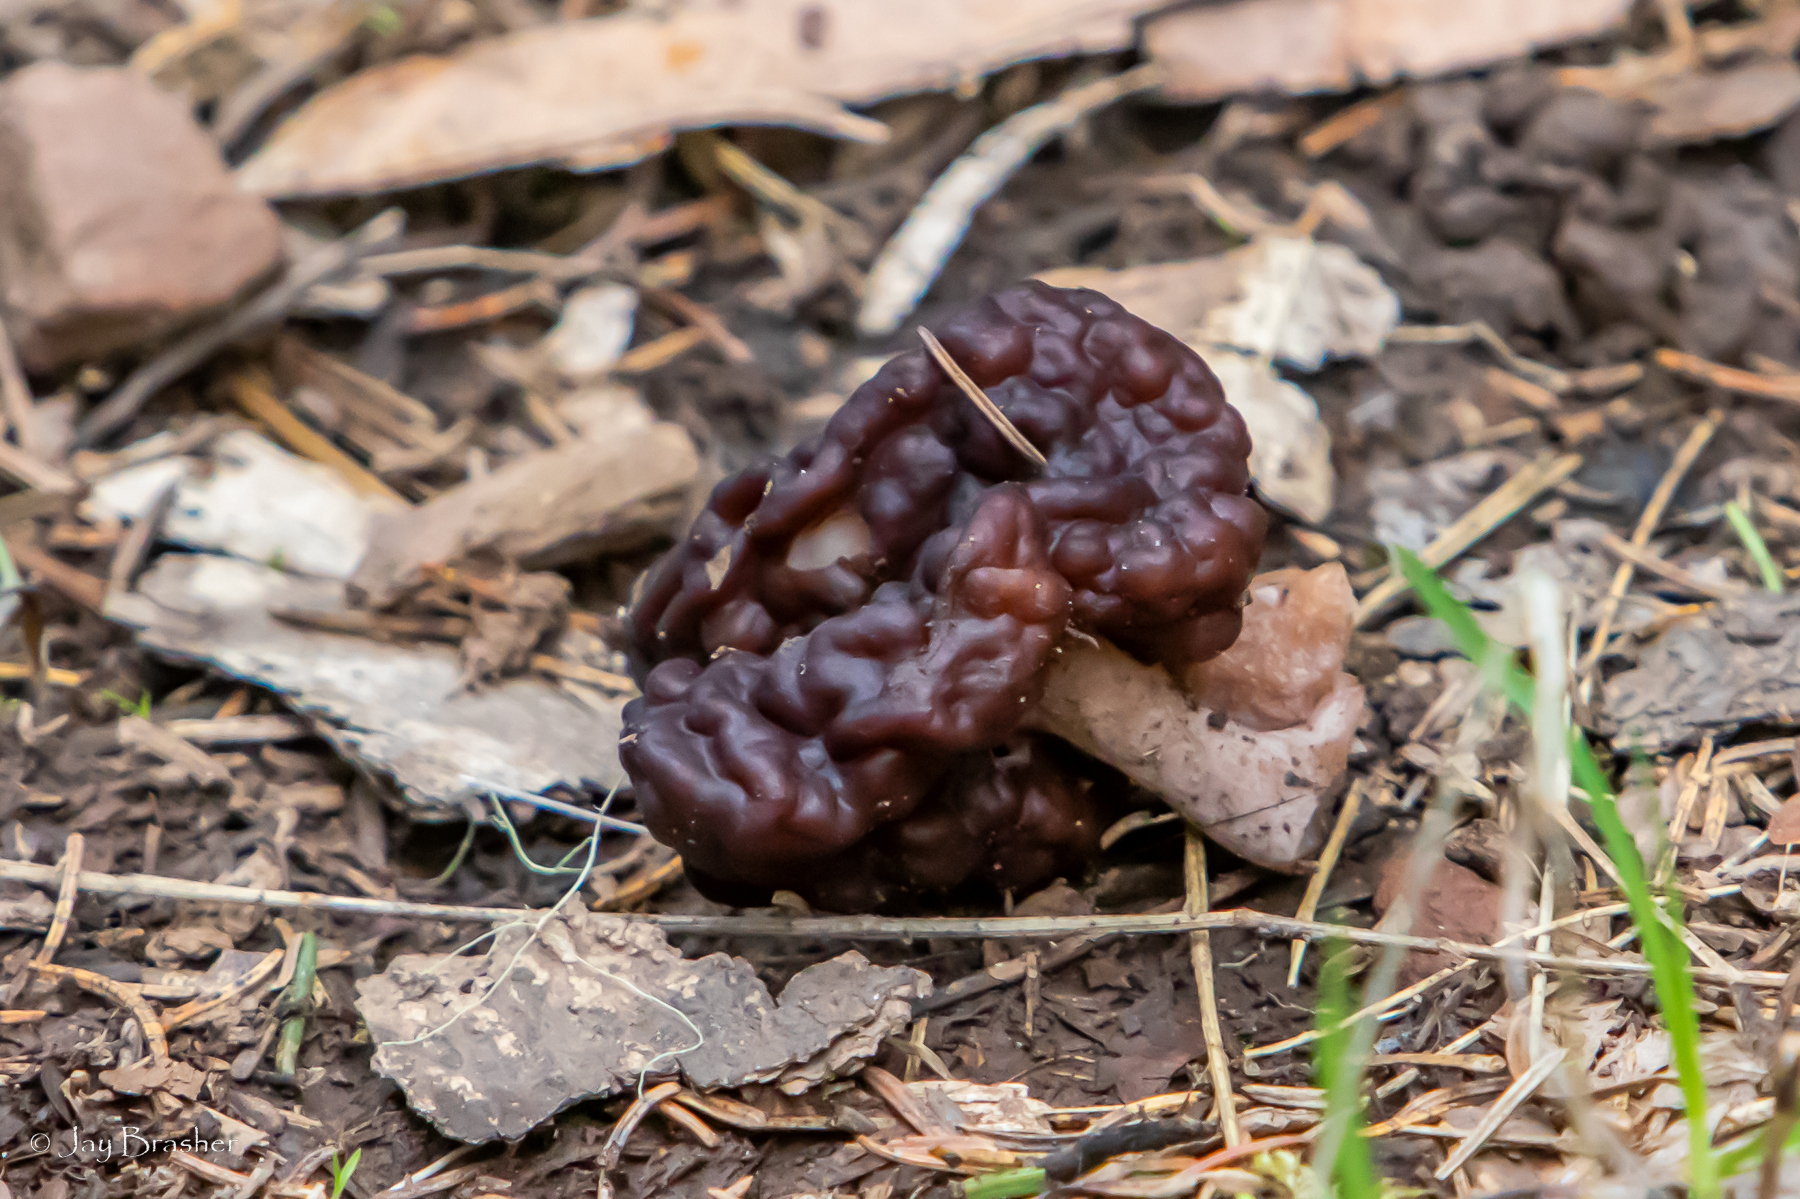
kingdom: Fungi
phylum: Ascomycota
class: Pezizomycetes
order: Pezizales
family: Discinaceae
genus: Gyromitra
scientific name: Gyromitra esculenta
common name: False morel
